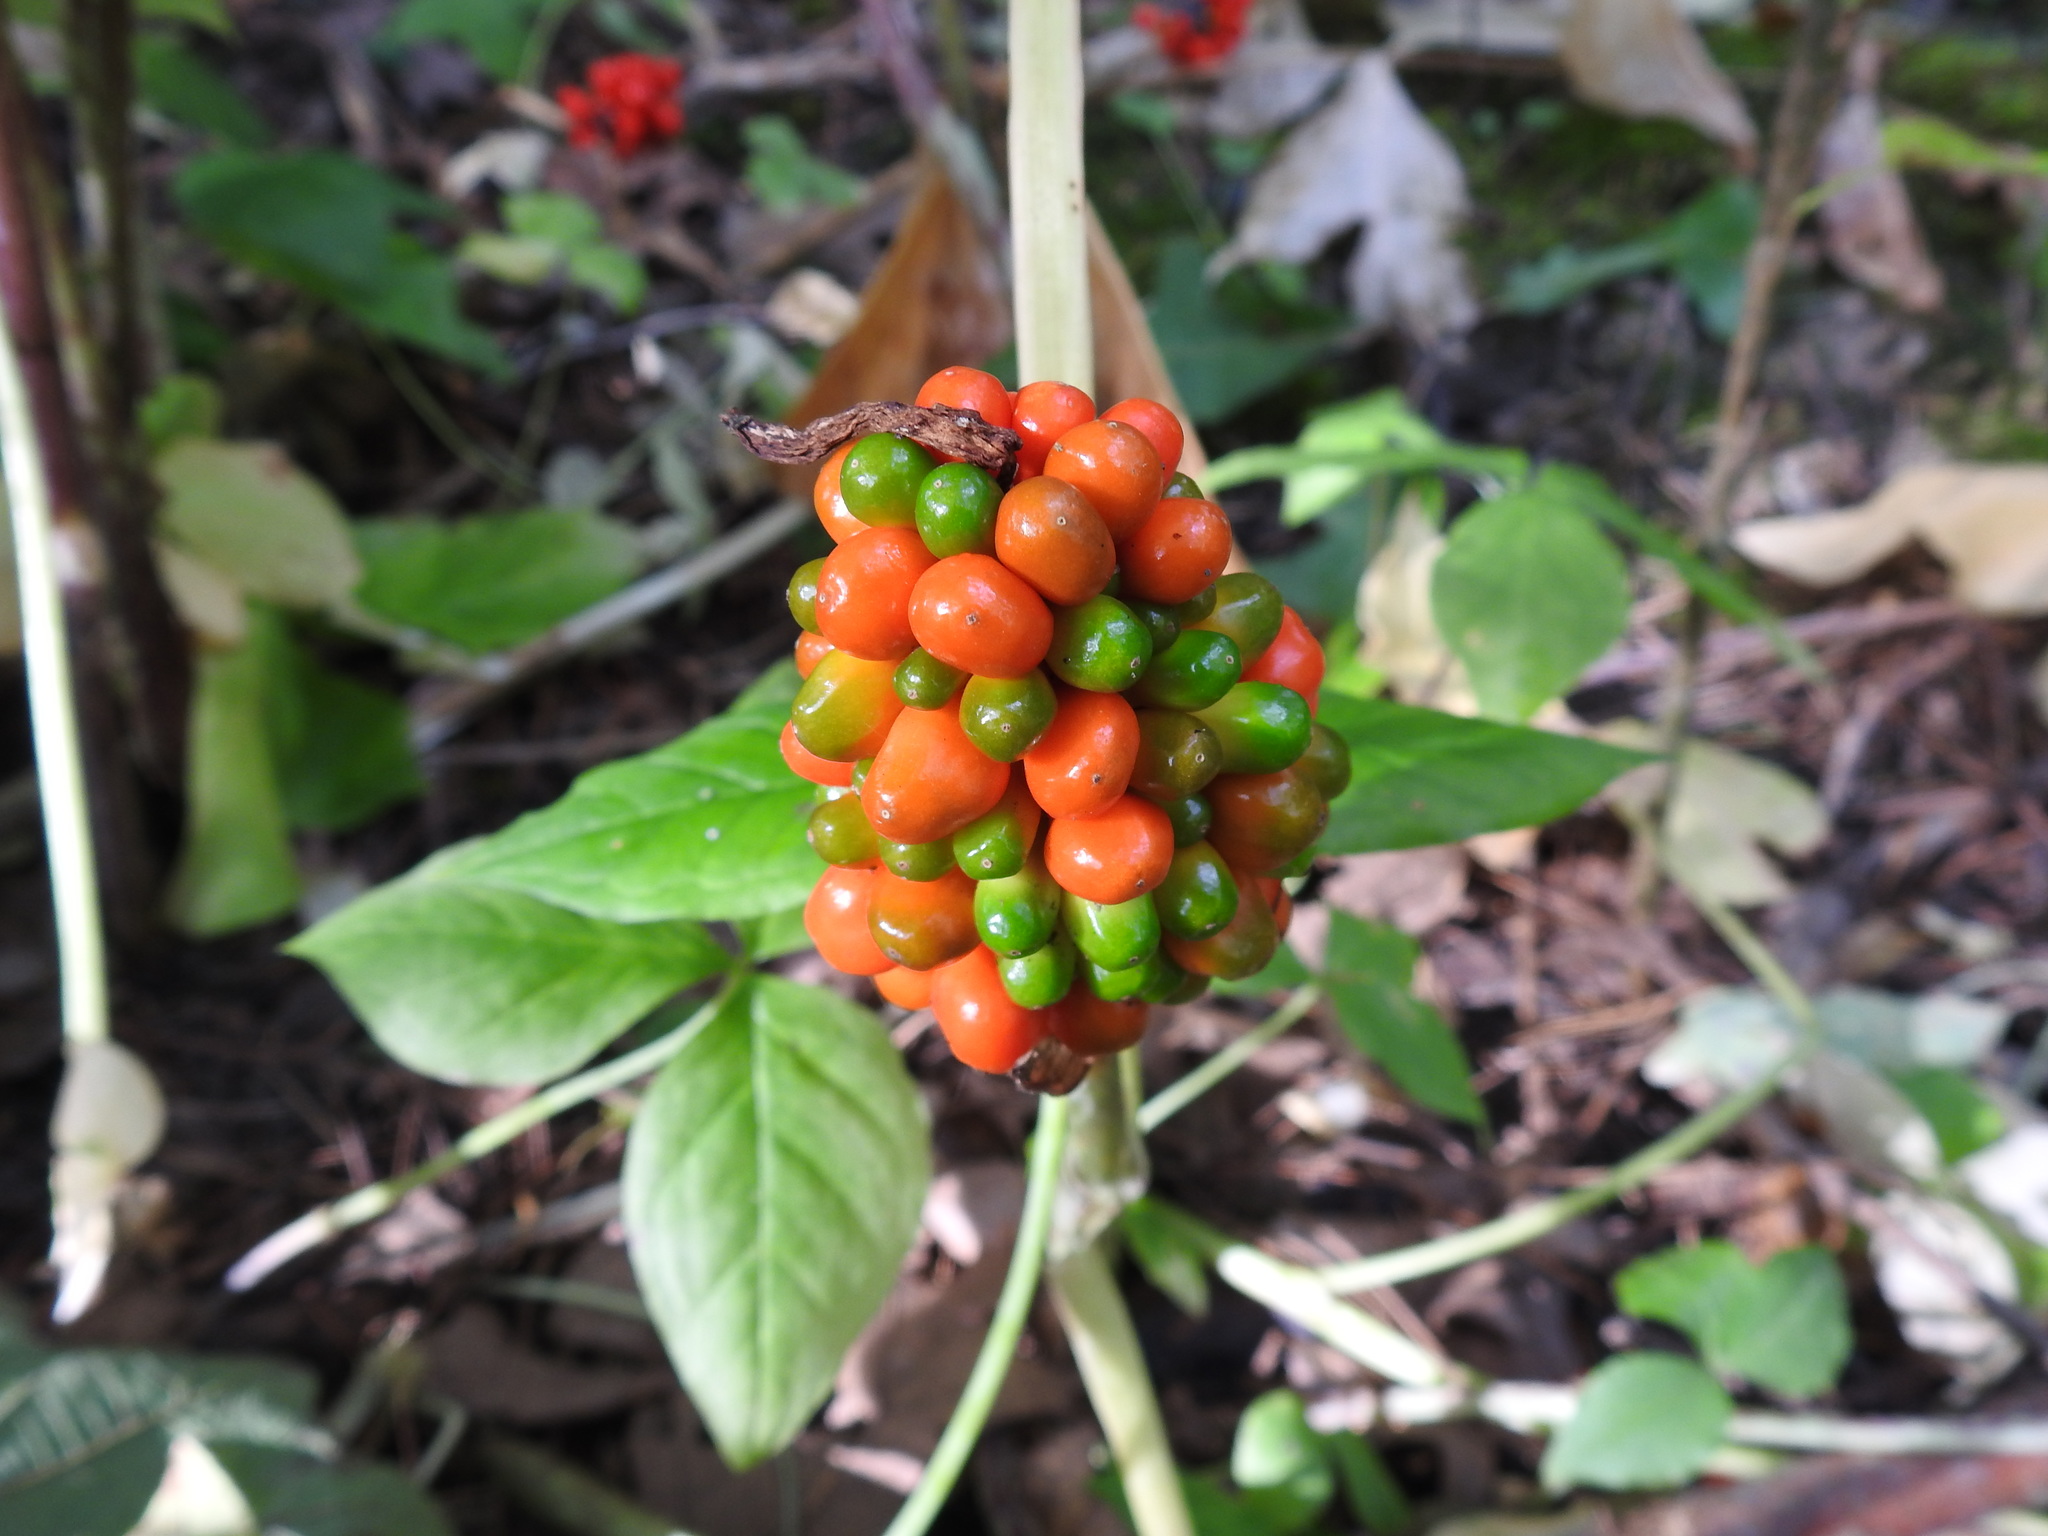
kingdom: Plantae
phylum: Tracheophyta
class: Liliopsida
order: Alismatales
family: Araceae
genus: Arisaema
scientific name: Arisaema triphyllum
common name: Jack-in-the-pulpit
